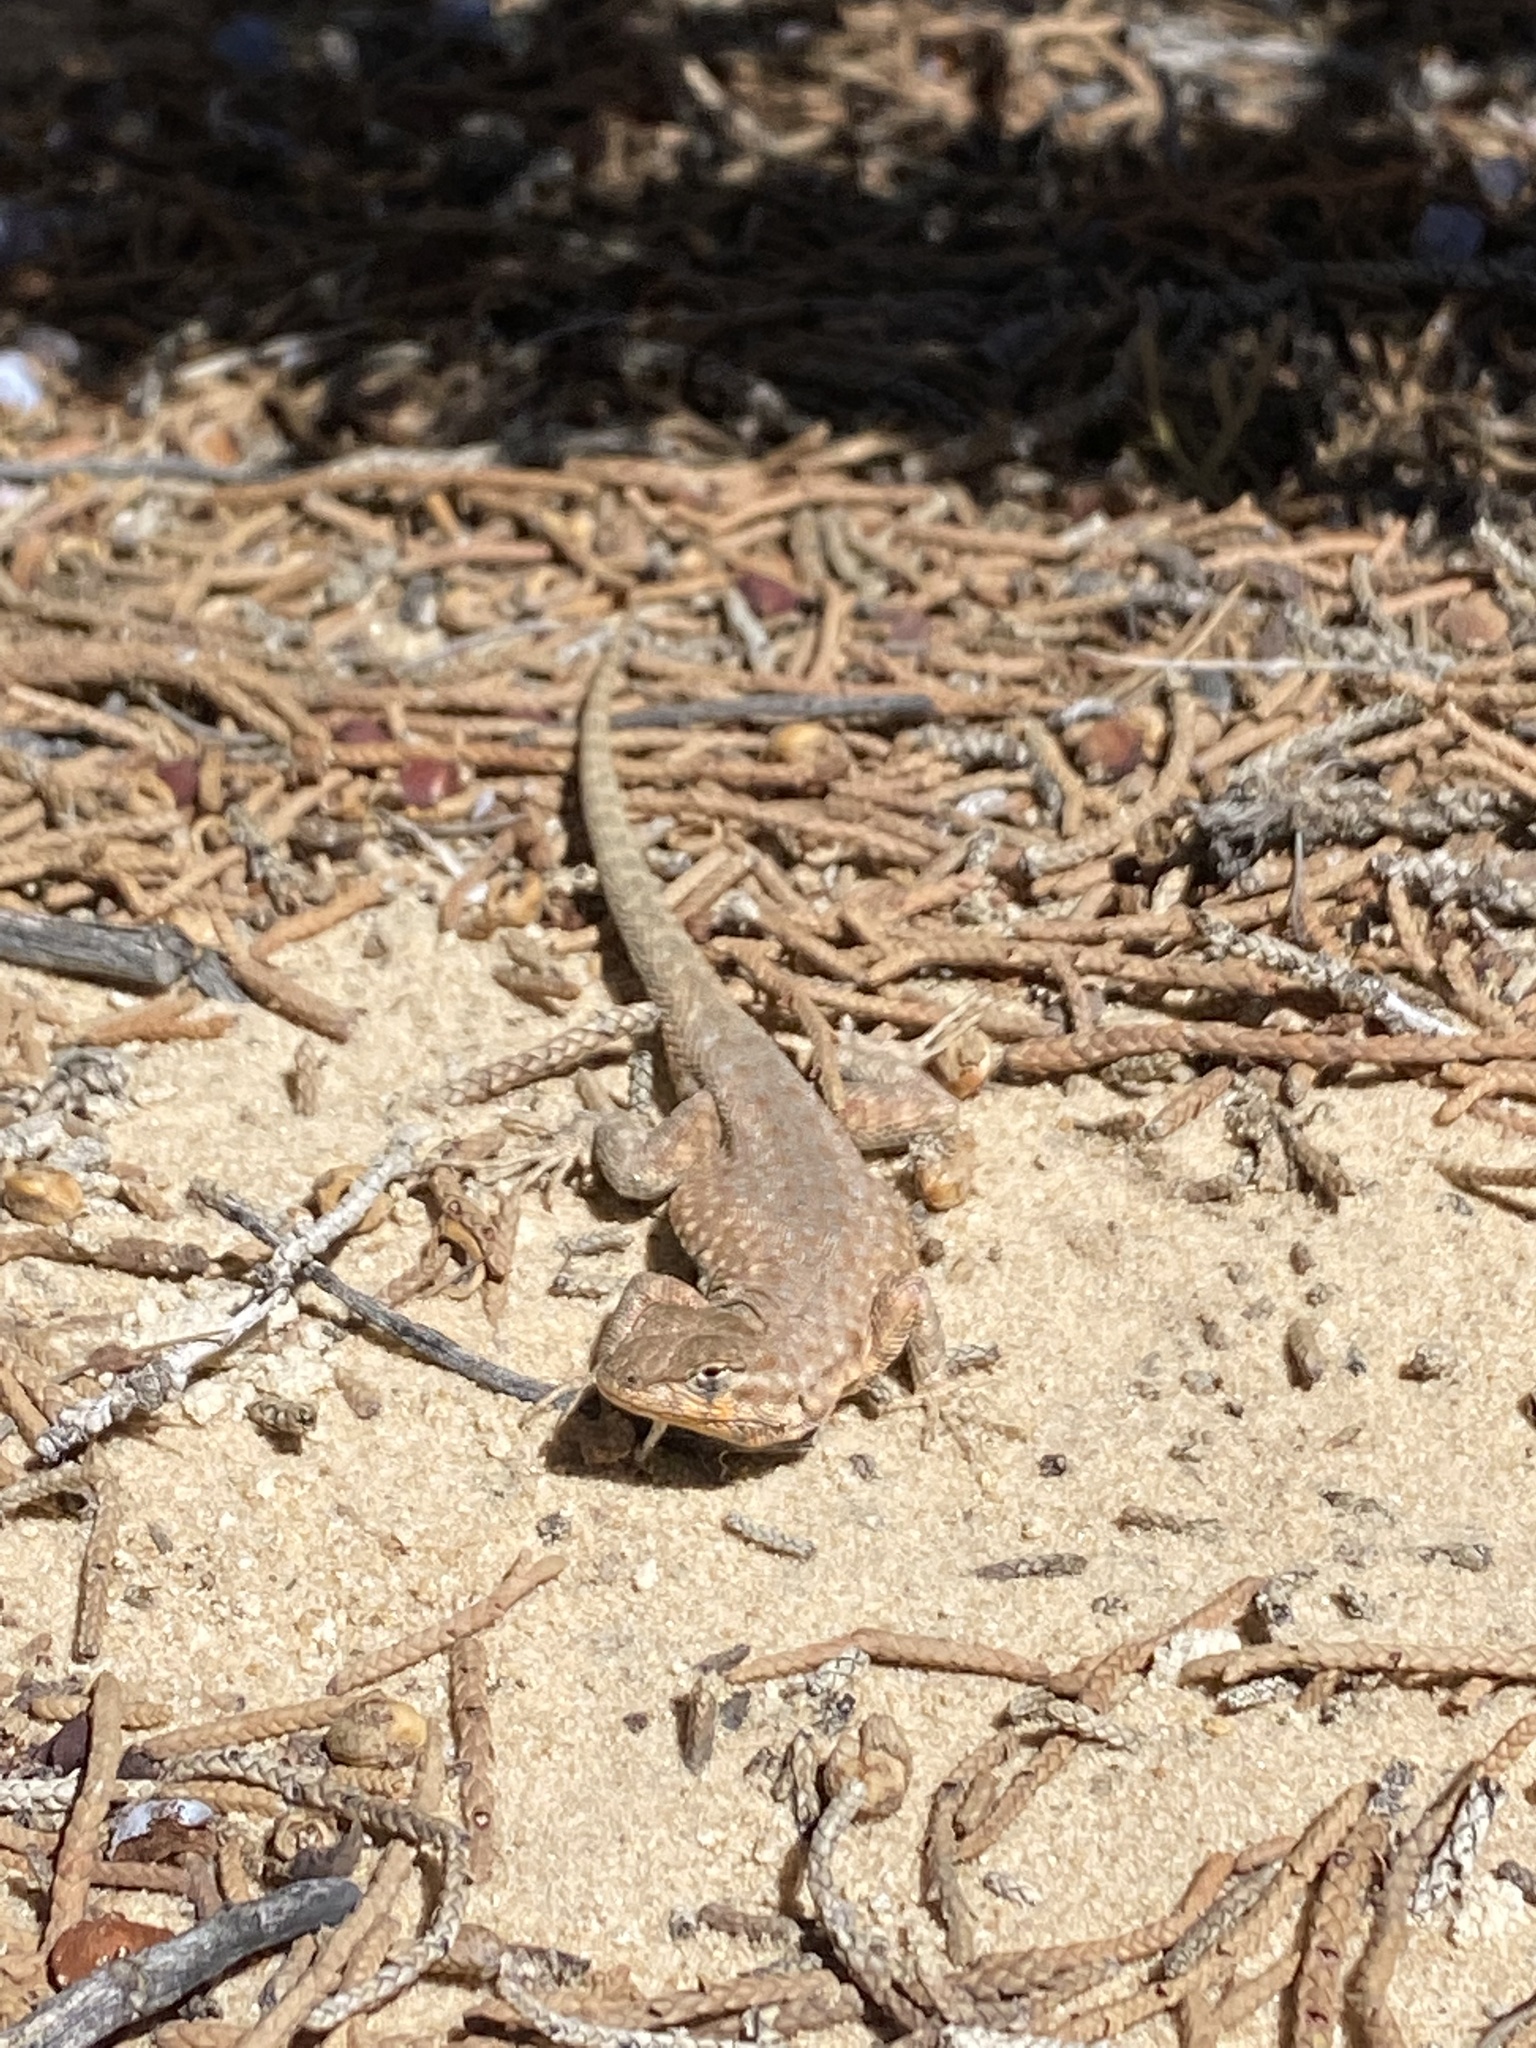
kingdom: Animalia
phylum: Chordata
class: Squamata
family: Phrynosomatidae
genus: Uta
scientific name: Uta stansburiana
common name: Side-blotched lizard
